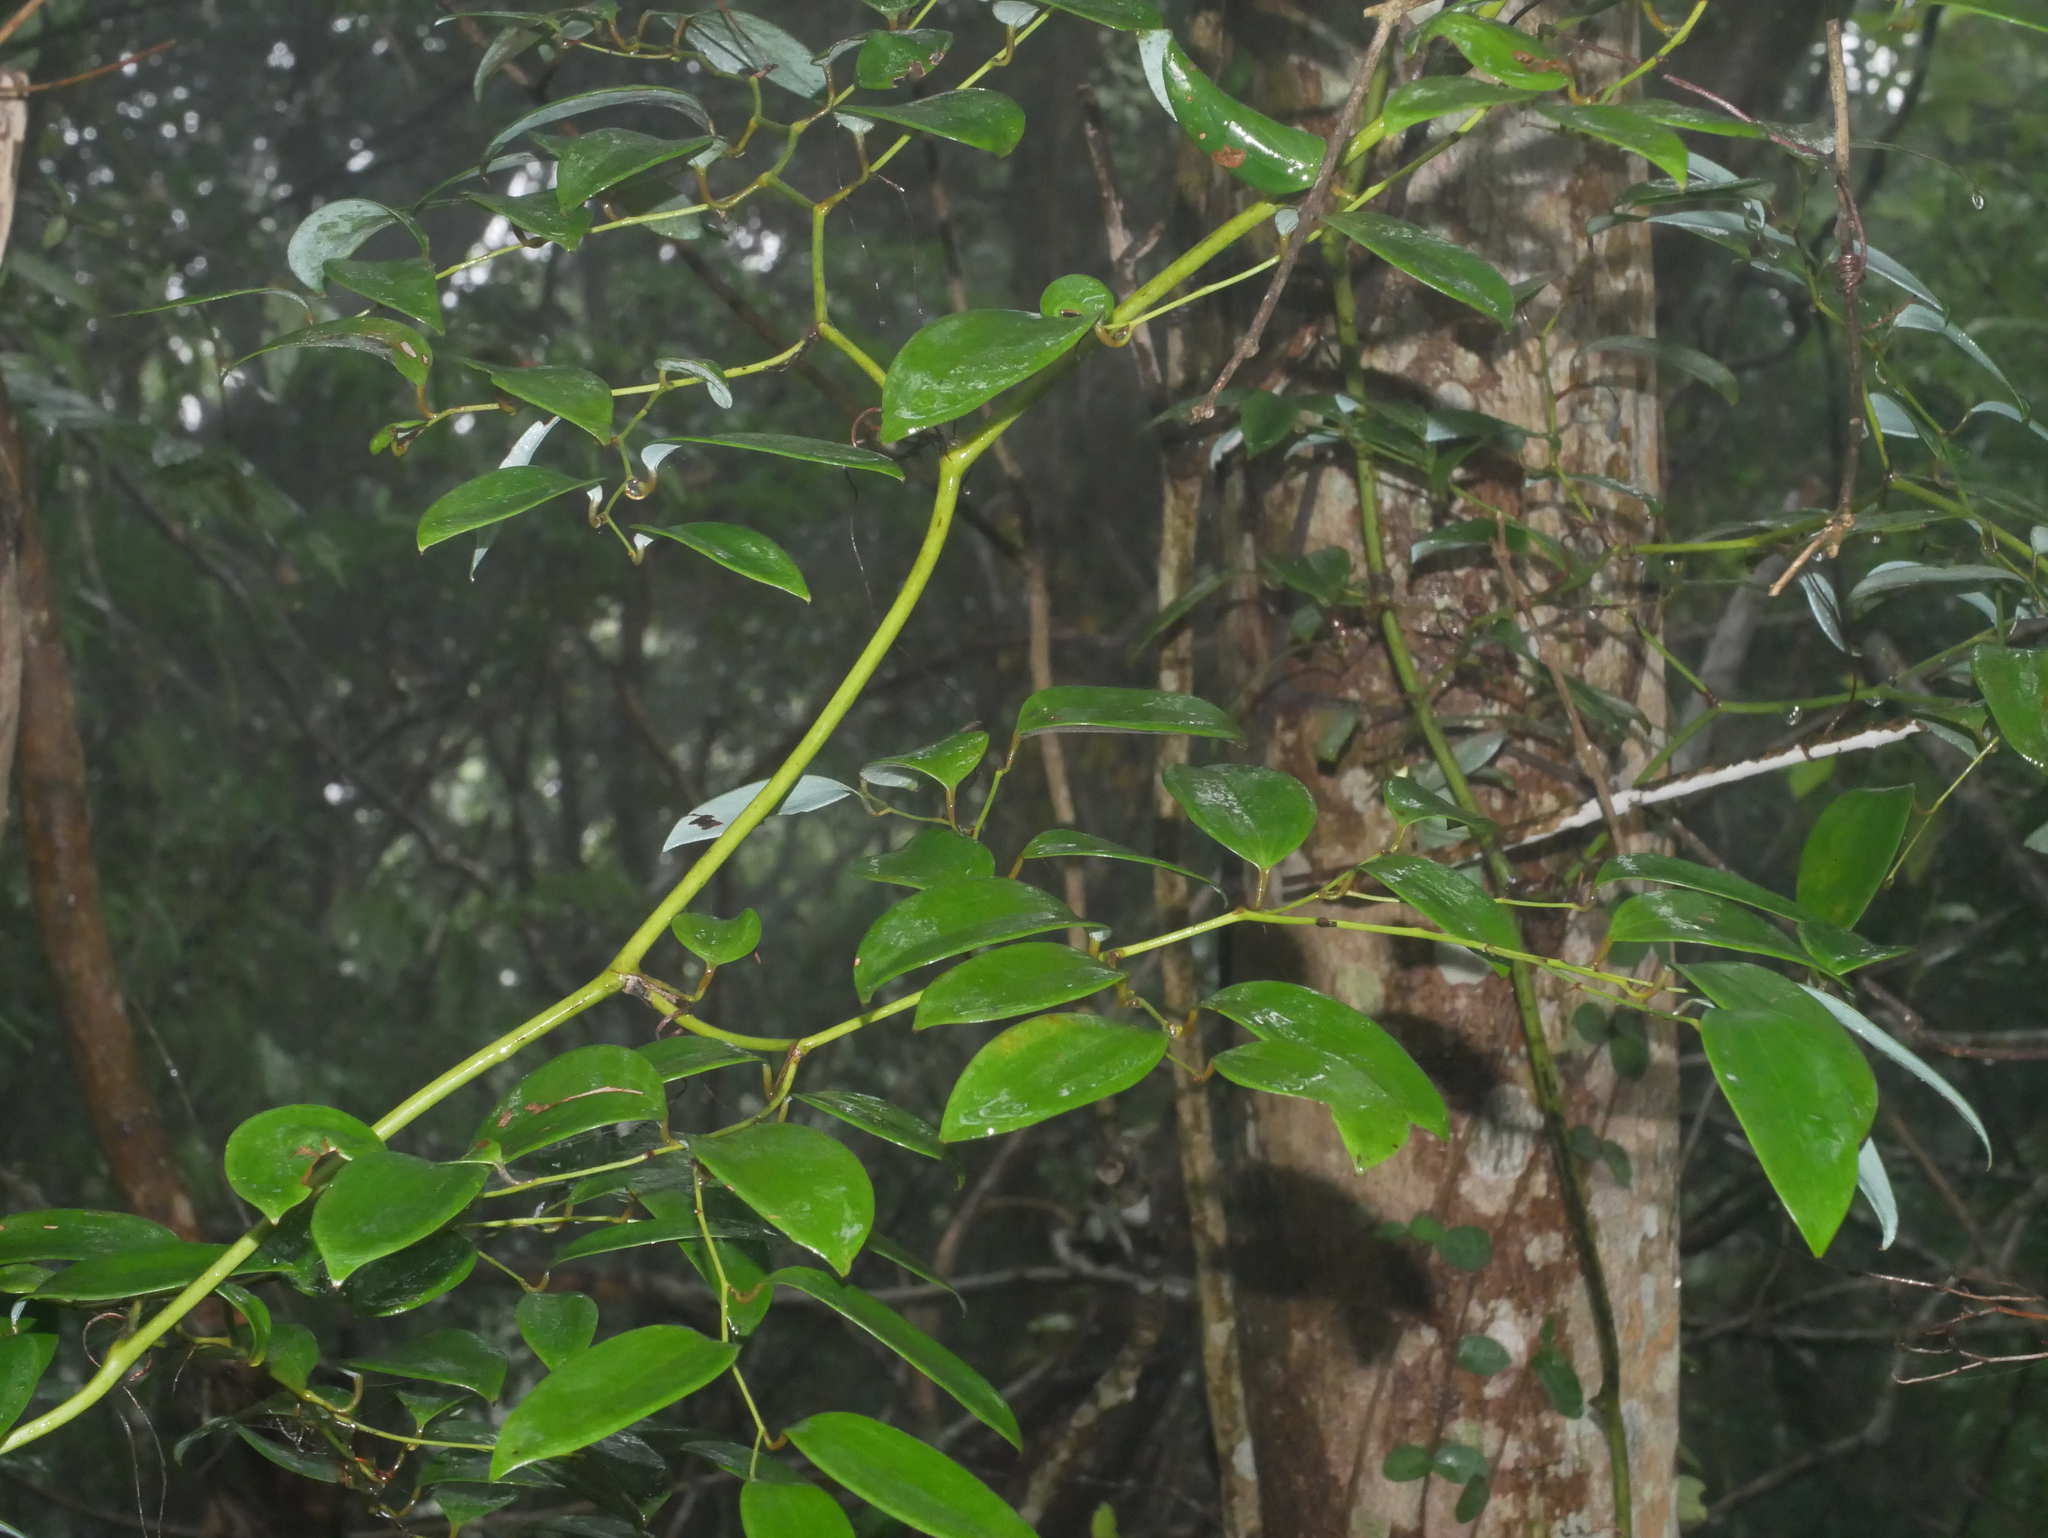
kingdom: Plantae
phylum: Tracheophyta
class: Liliopsida
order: Liliales
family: Smilacaceae
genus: Smilax
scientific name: Smilax corbularia
